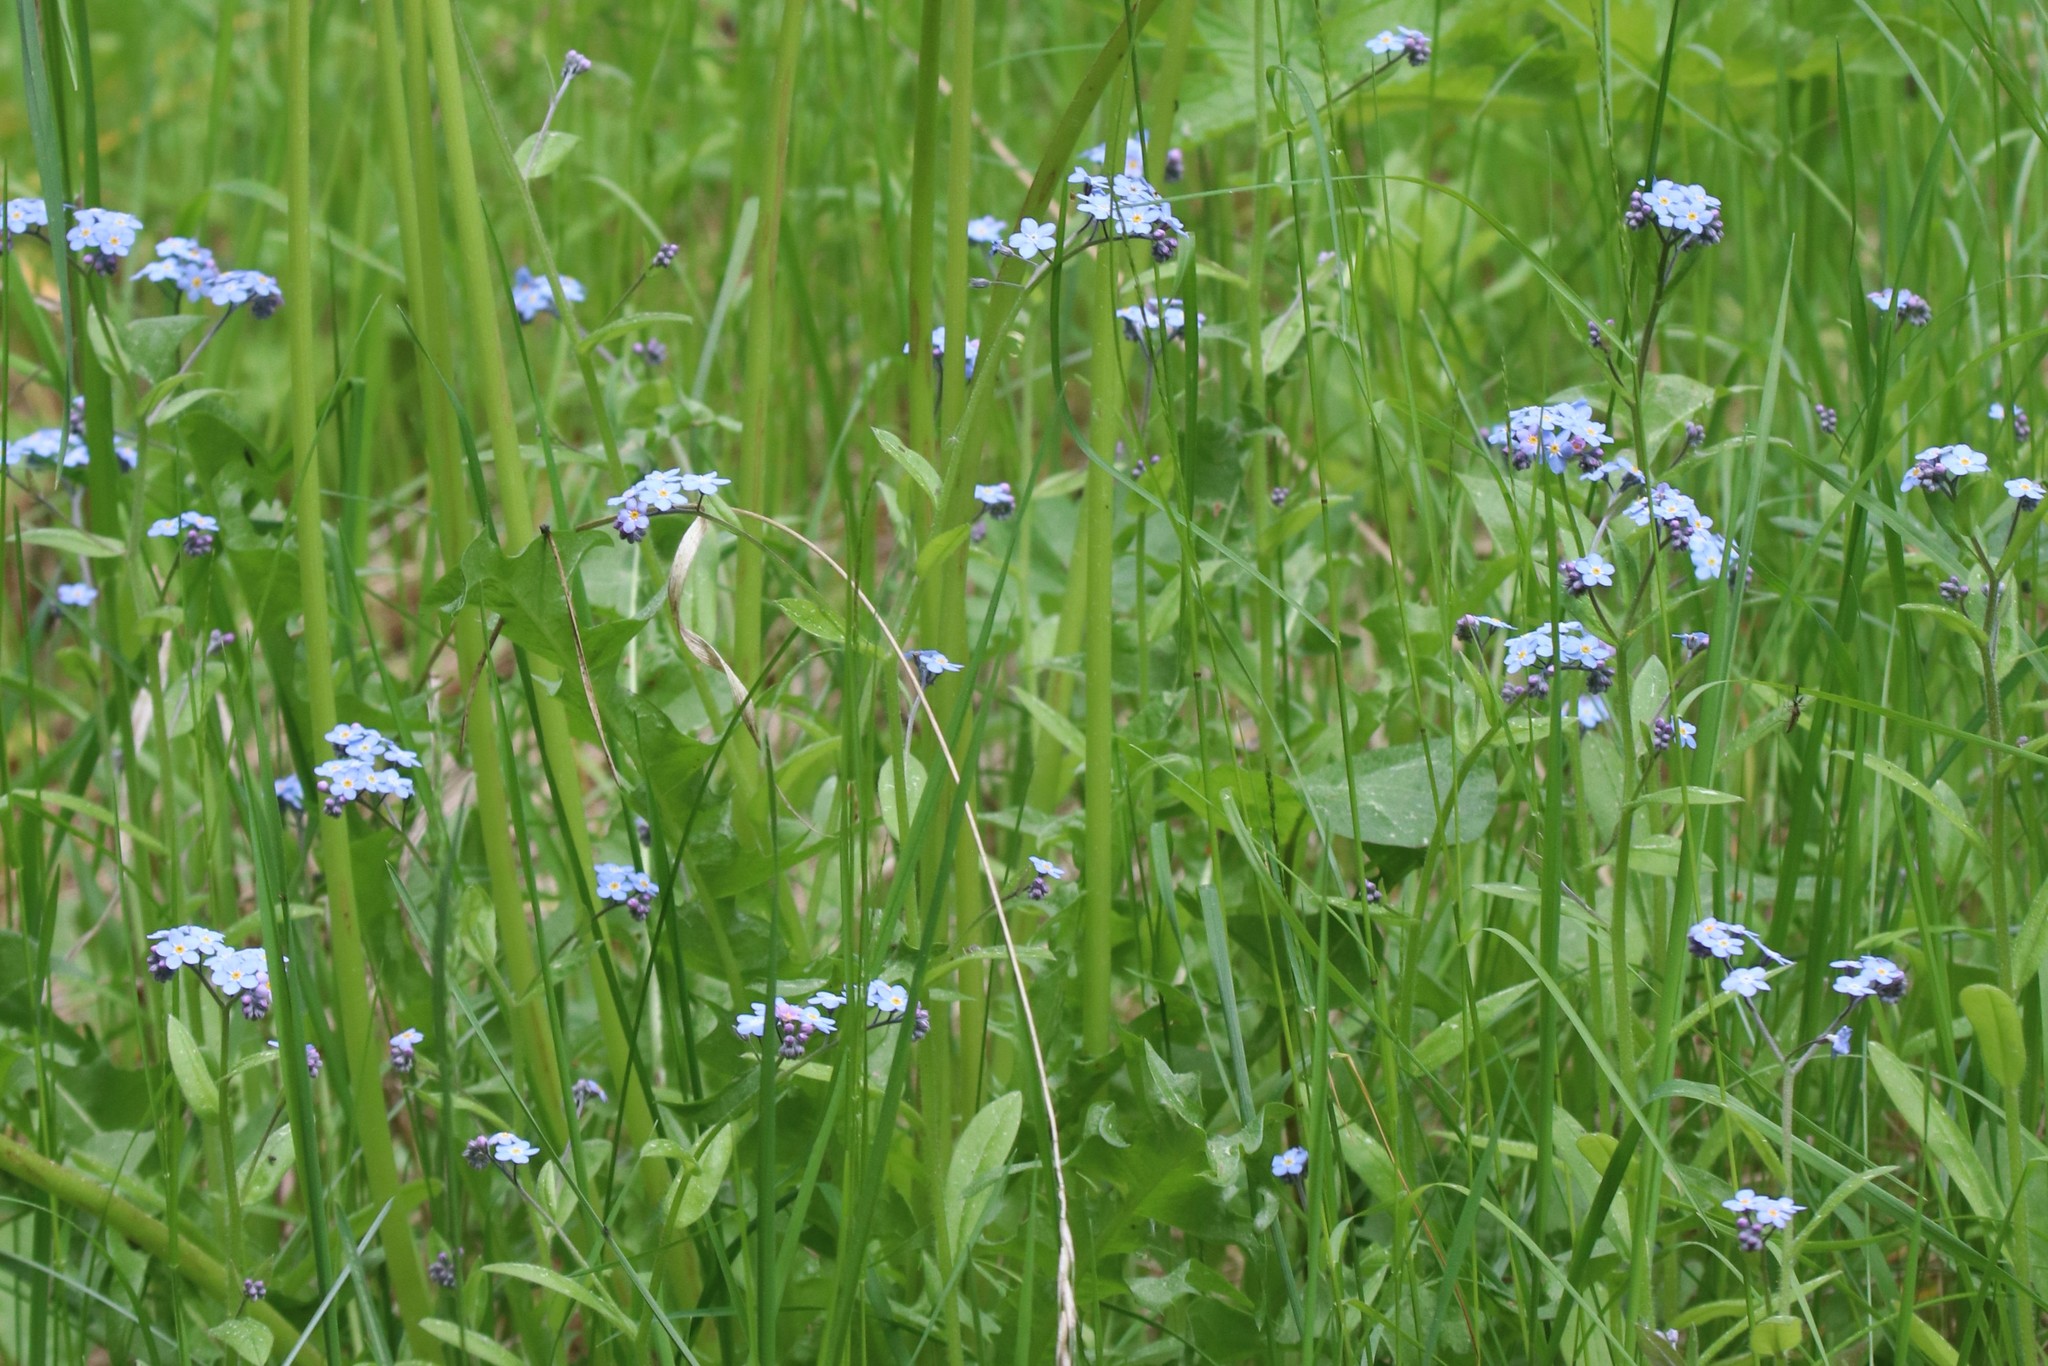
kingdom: Plantae
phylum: Tracheophyta
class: Magnoliopsida
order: Boraginales
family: Boraginaceae
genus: Myosotis
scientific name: Myosotis sylvatica
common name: Wood forget-me-not
